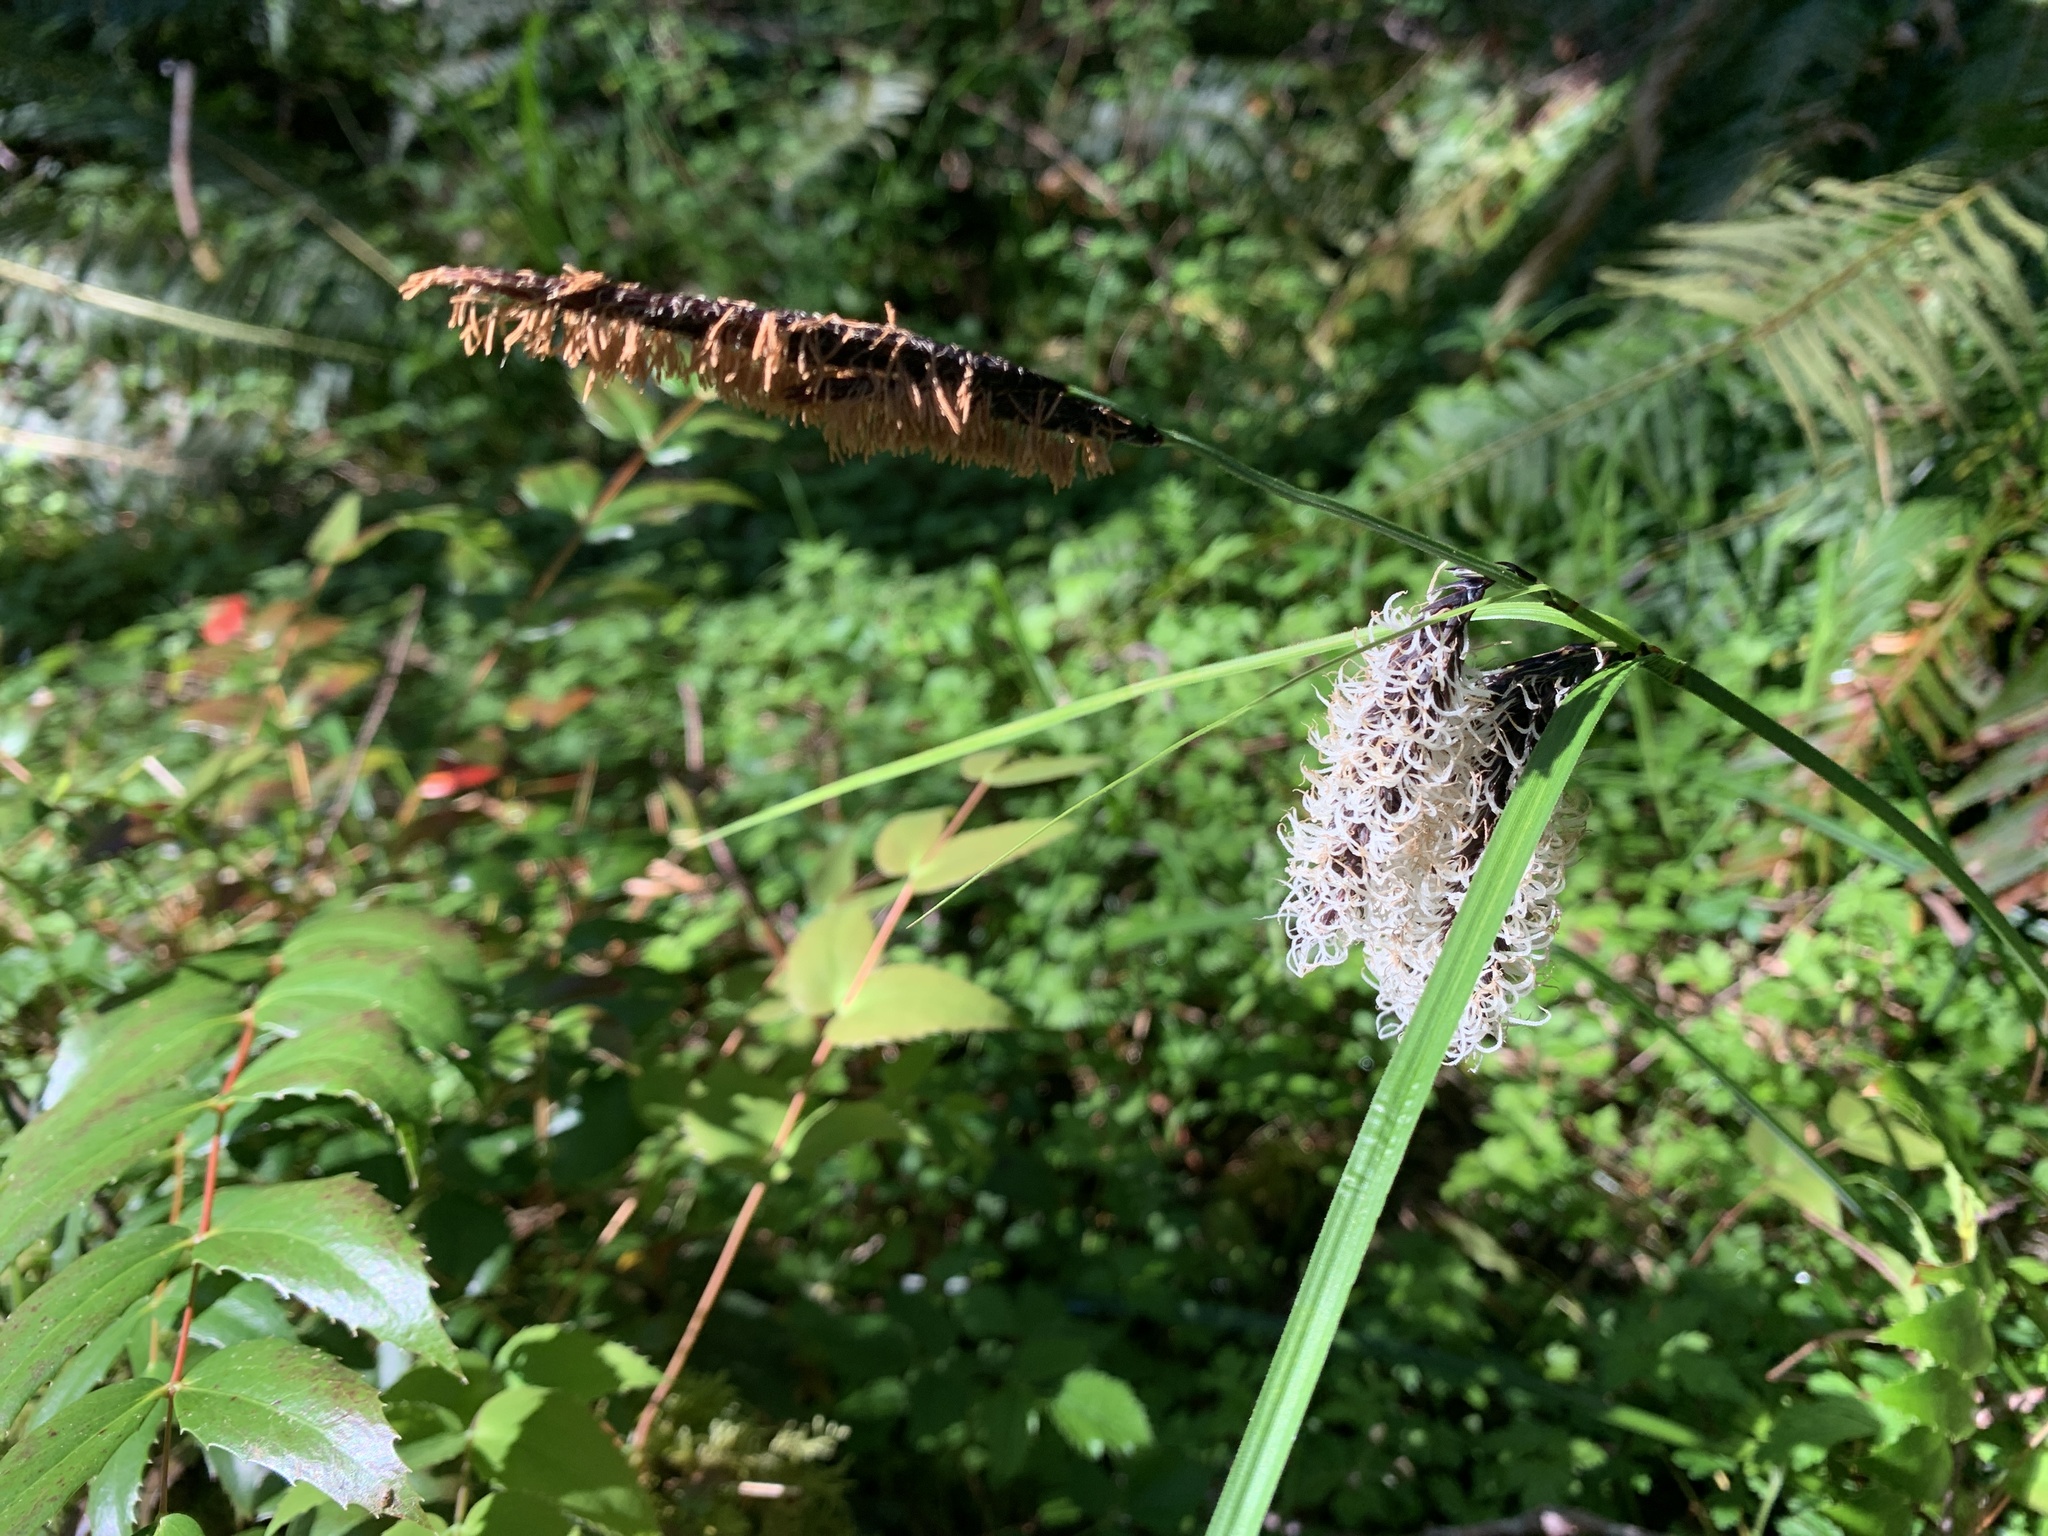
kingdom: Plantae
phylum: Tracheophyta
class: Liliopsida
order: Poales
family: Cyperaceae
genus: Carex
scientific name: Carex obnupta
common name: Slough sedge
